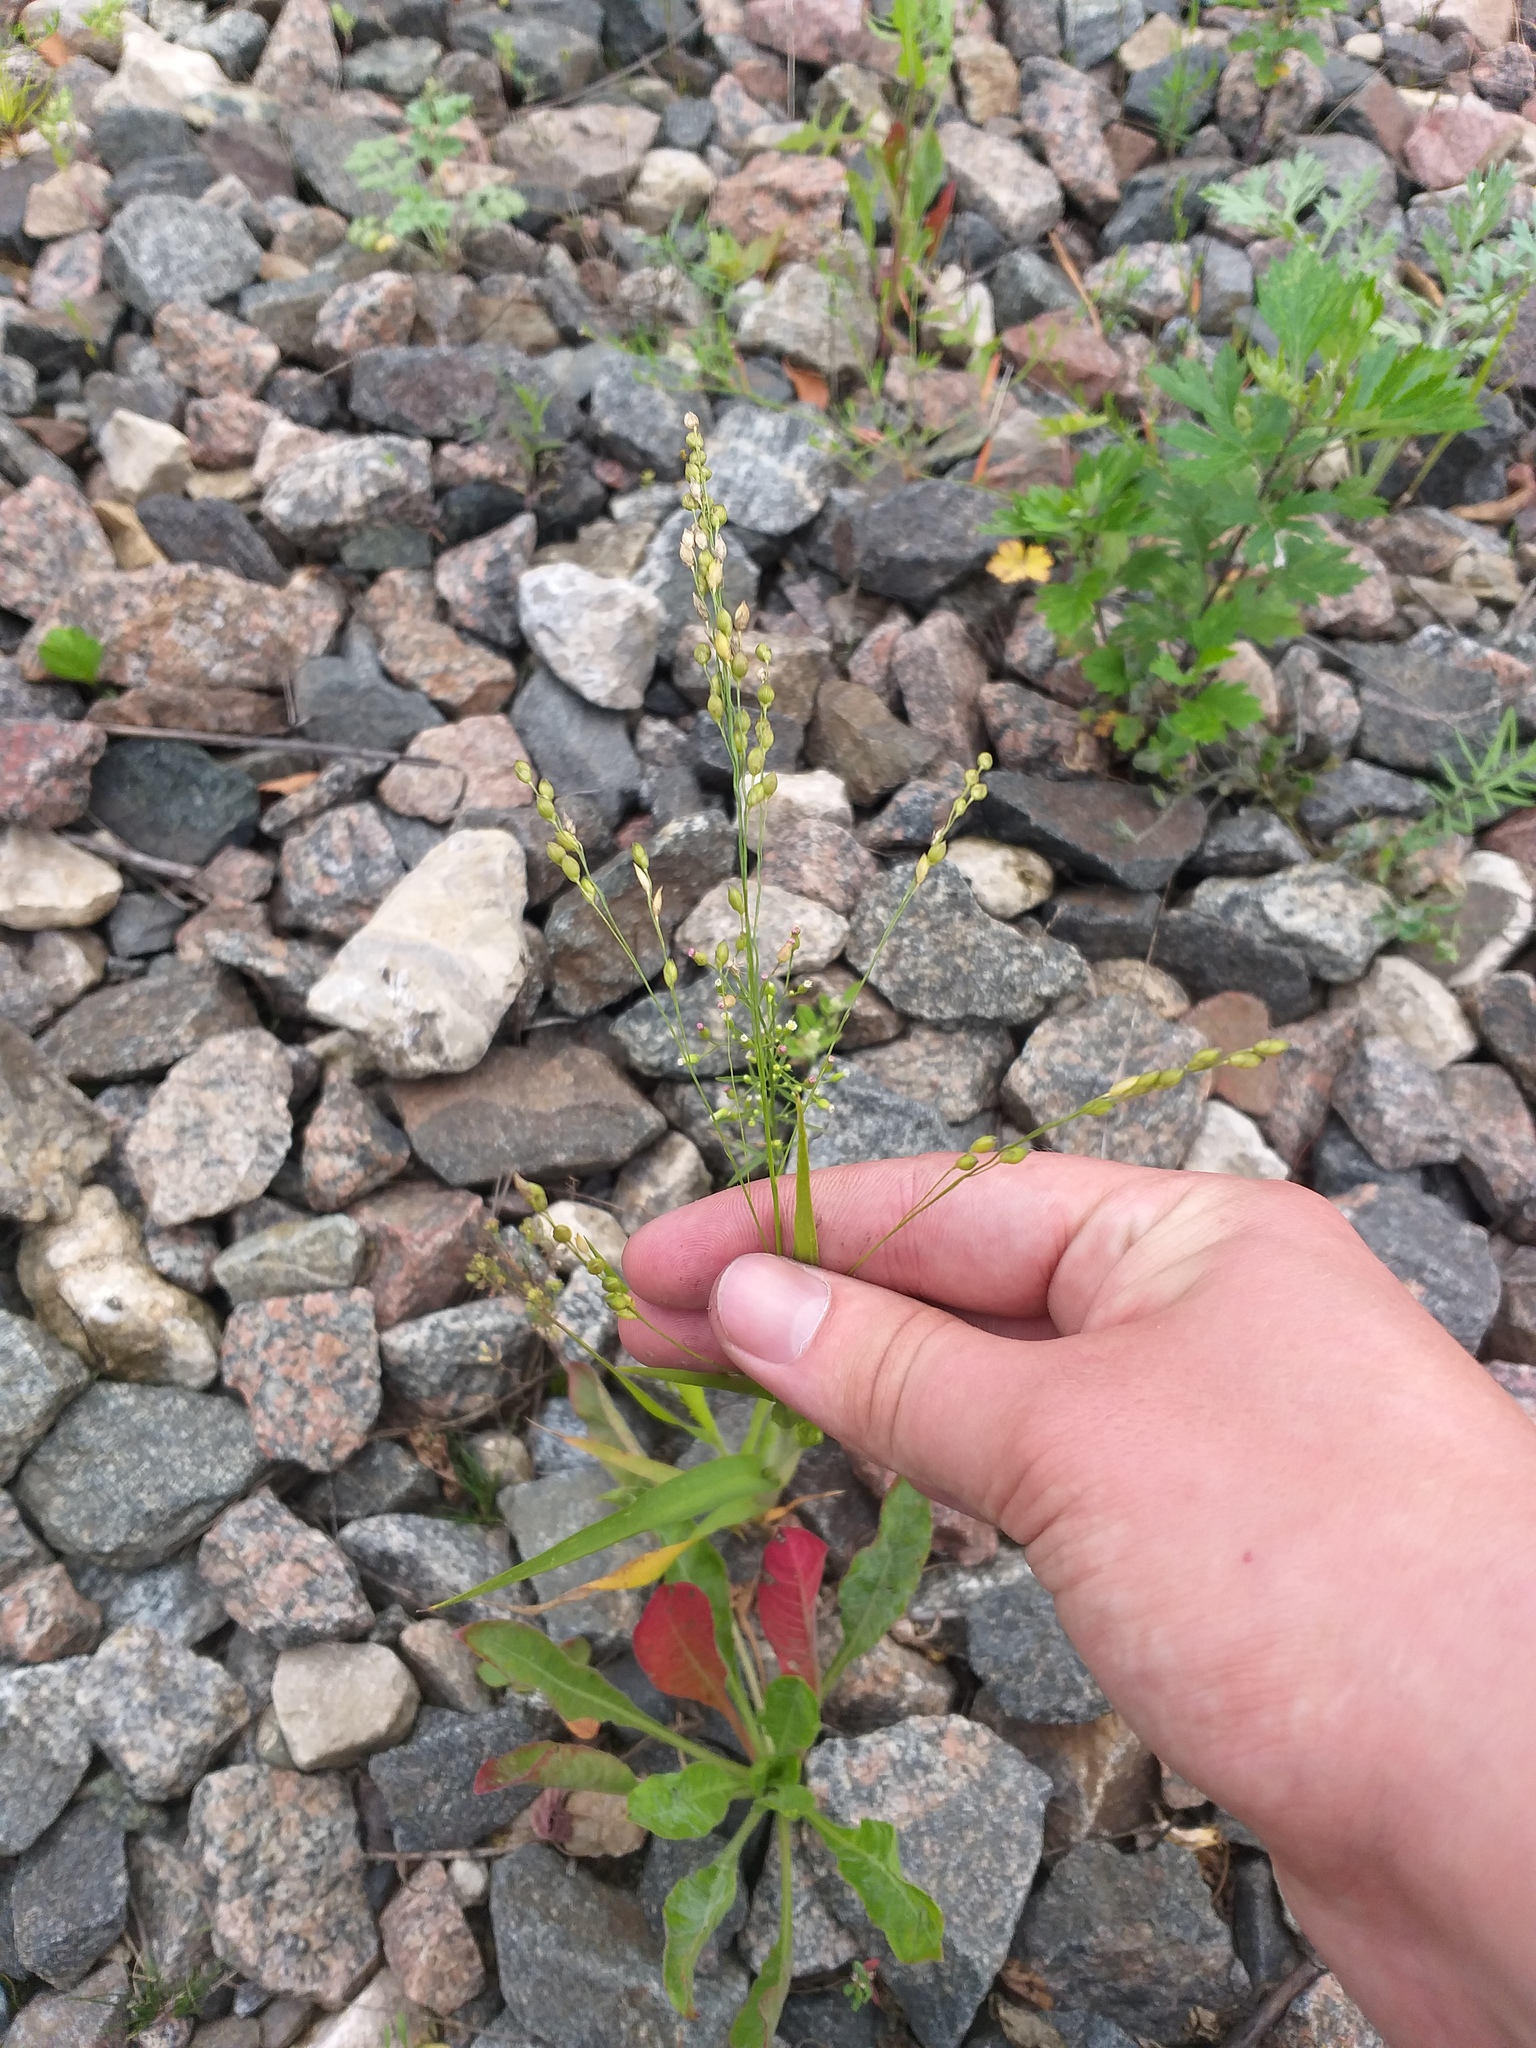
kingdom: Plantae
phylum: Tracheophyta
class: Liliopsida
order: Poales
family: Poaceae
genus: Panicum
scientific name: Panicum miliaceum
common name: Common millet
